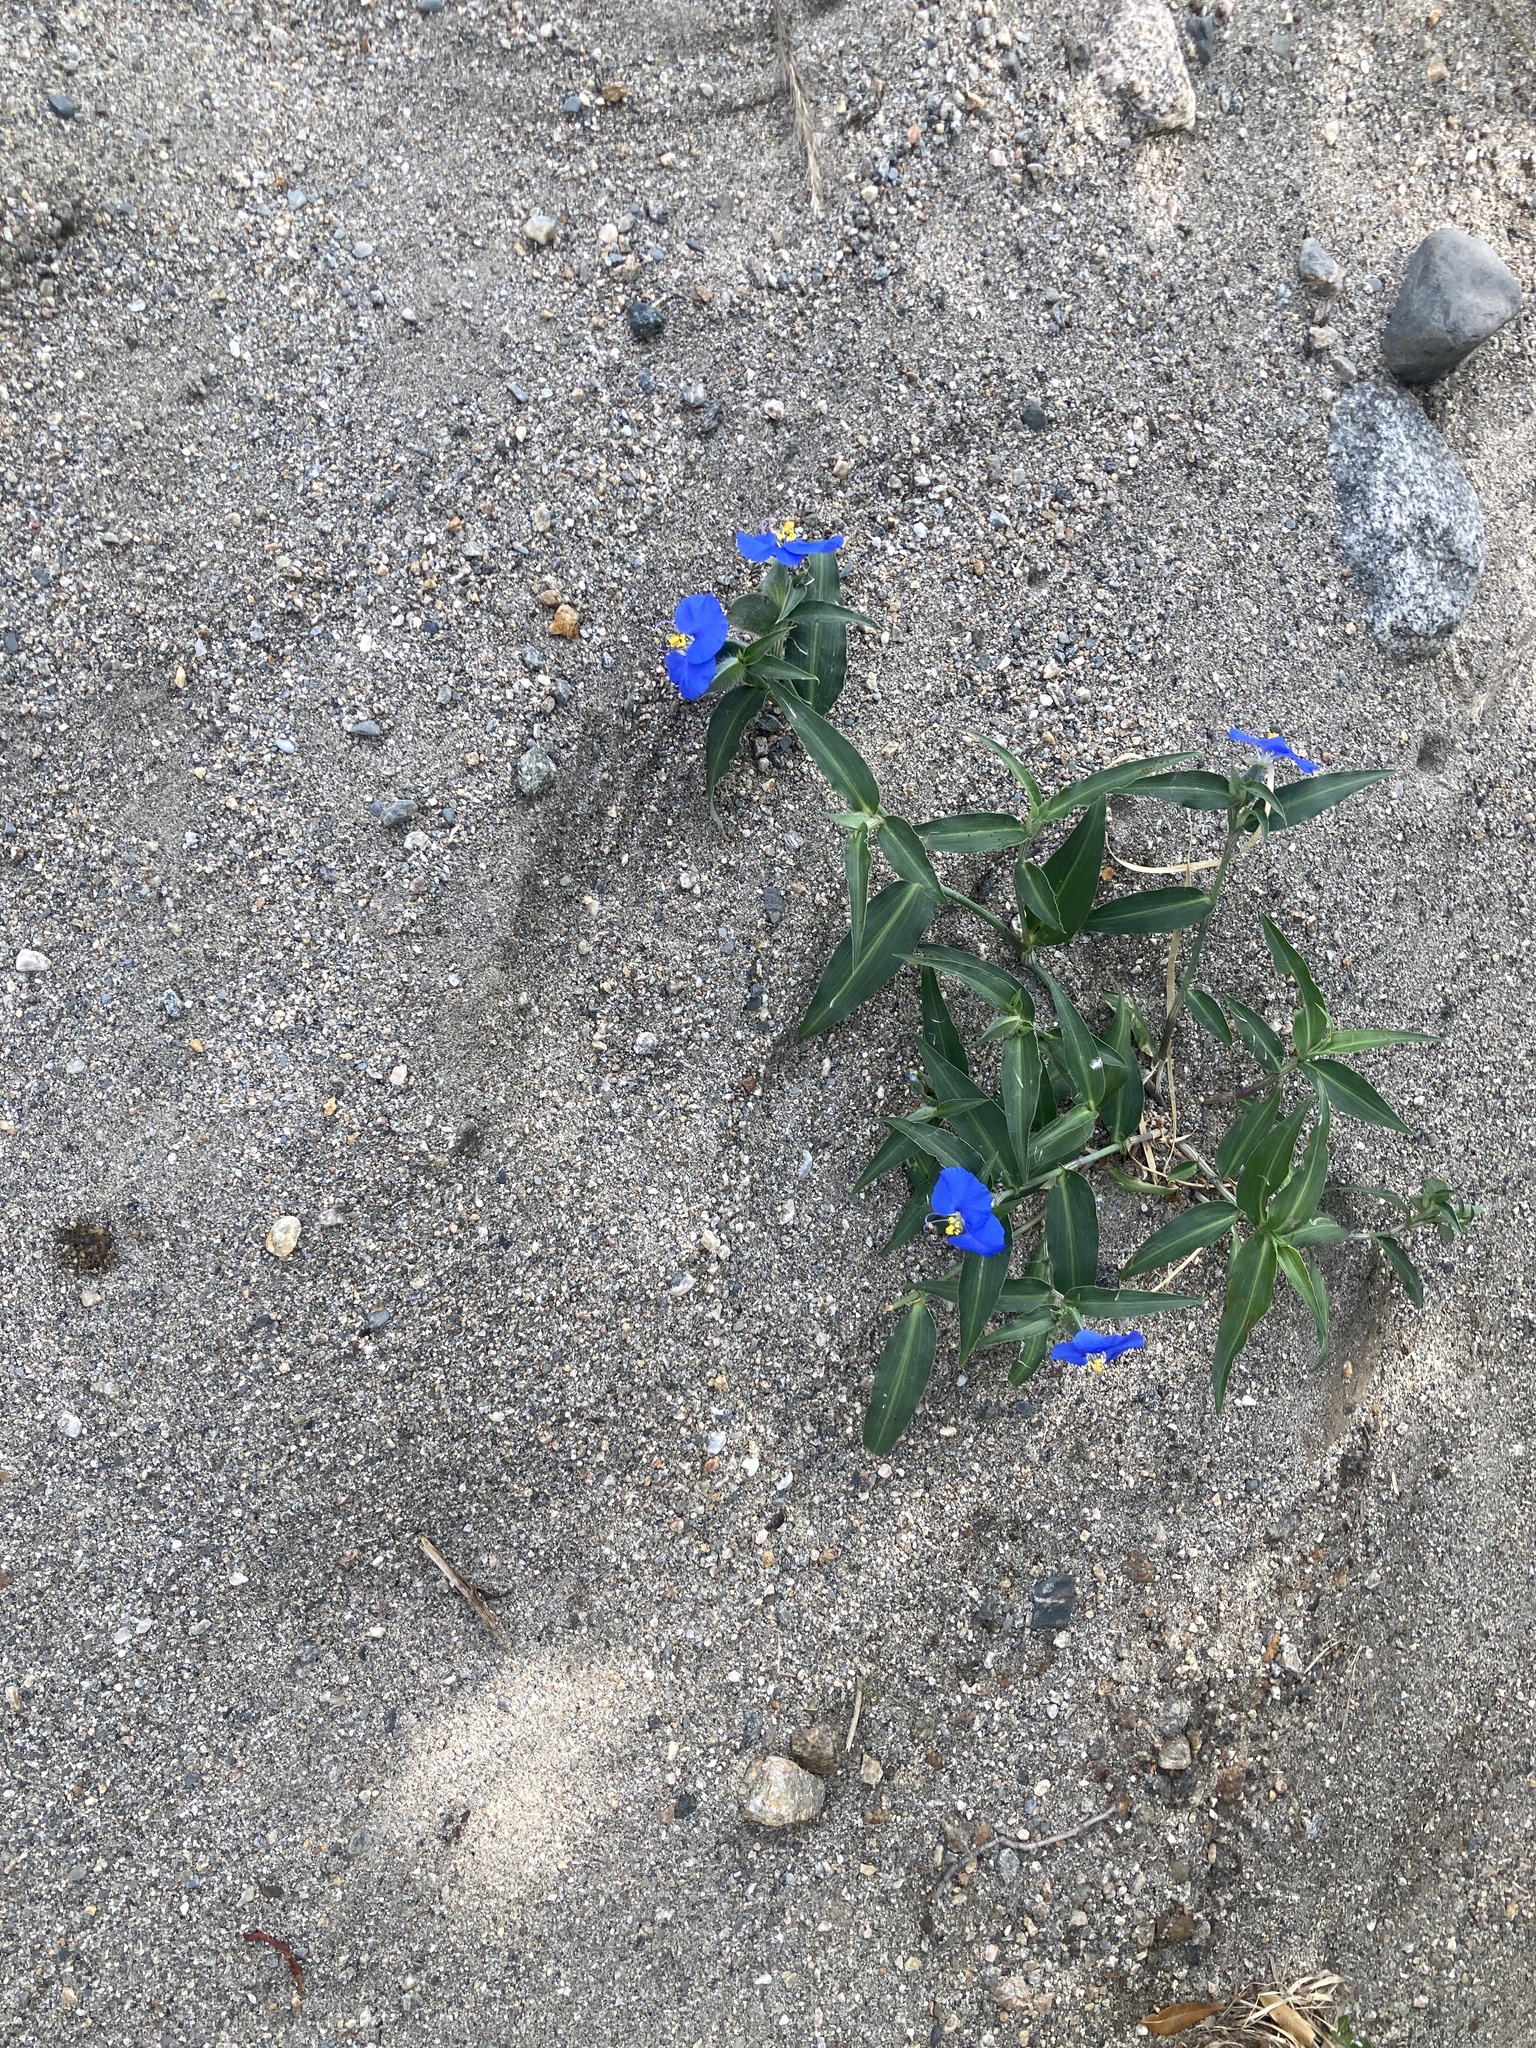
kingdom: Plantae
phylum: Tracheophyta
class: Liliopsida
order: Commelinales
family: Commelinaceae
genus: Commelina
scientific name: Commelina erecta
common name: Blousel blommetjie
